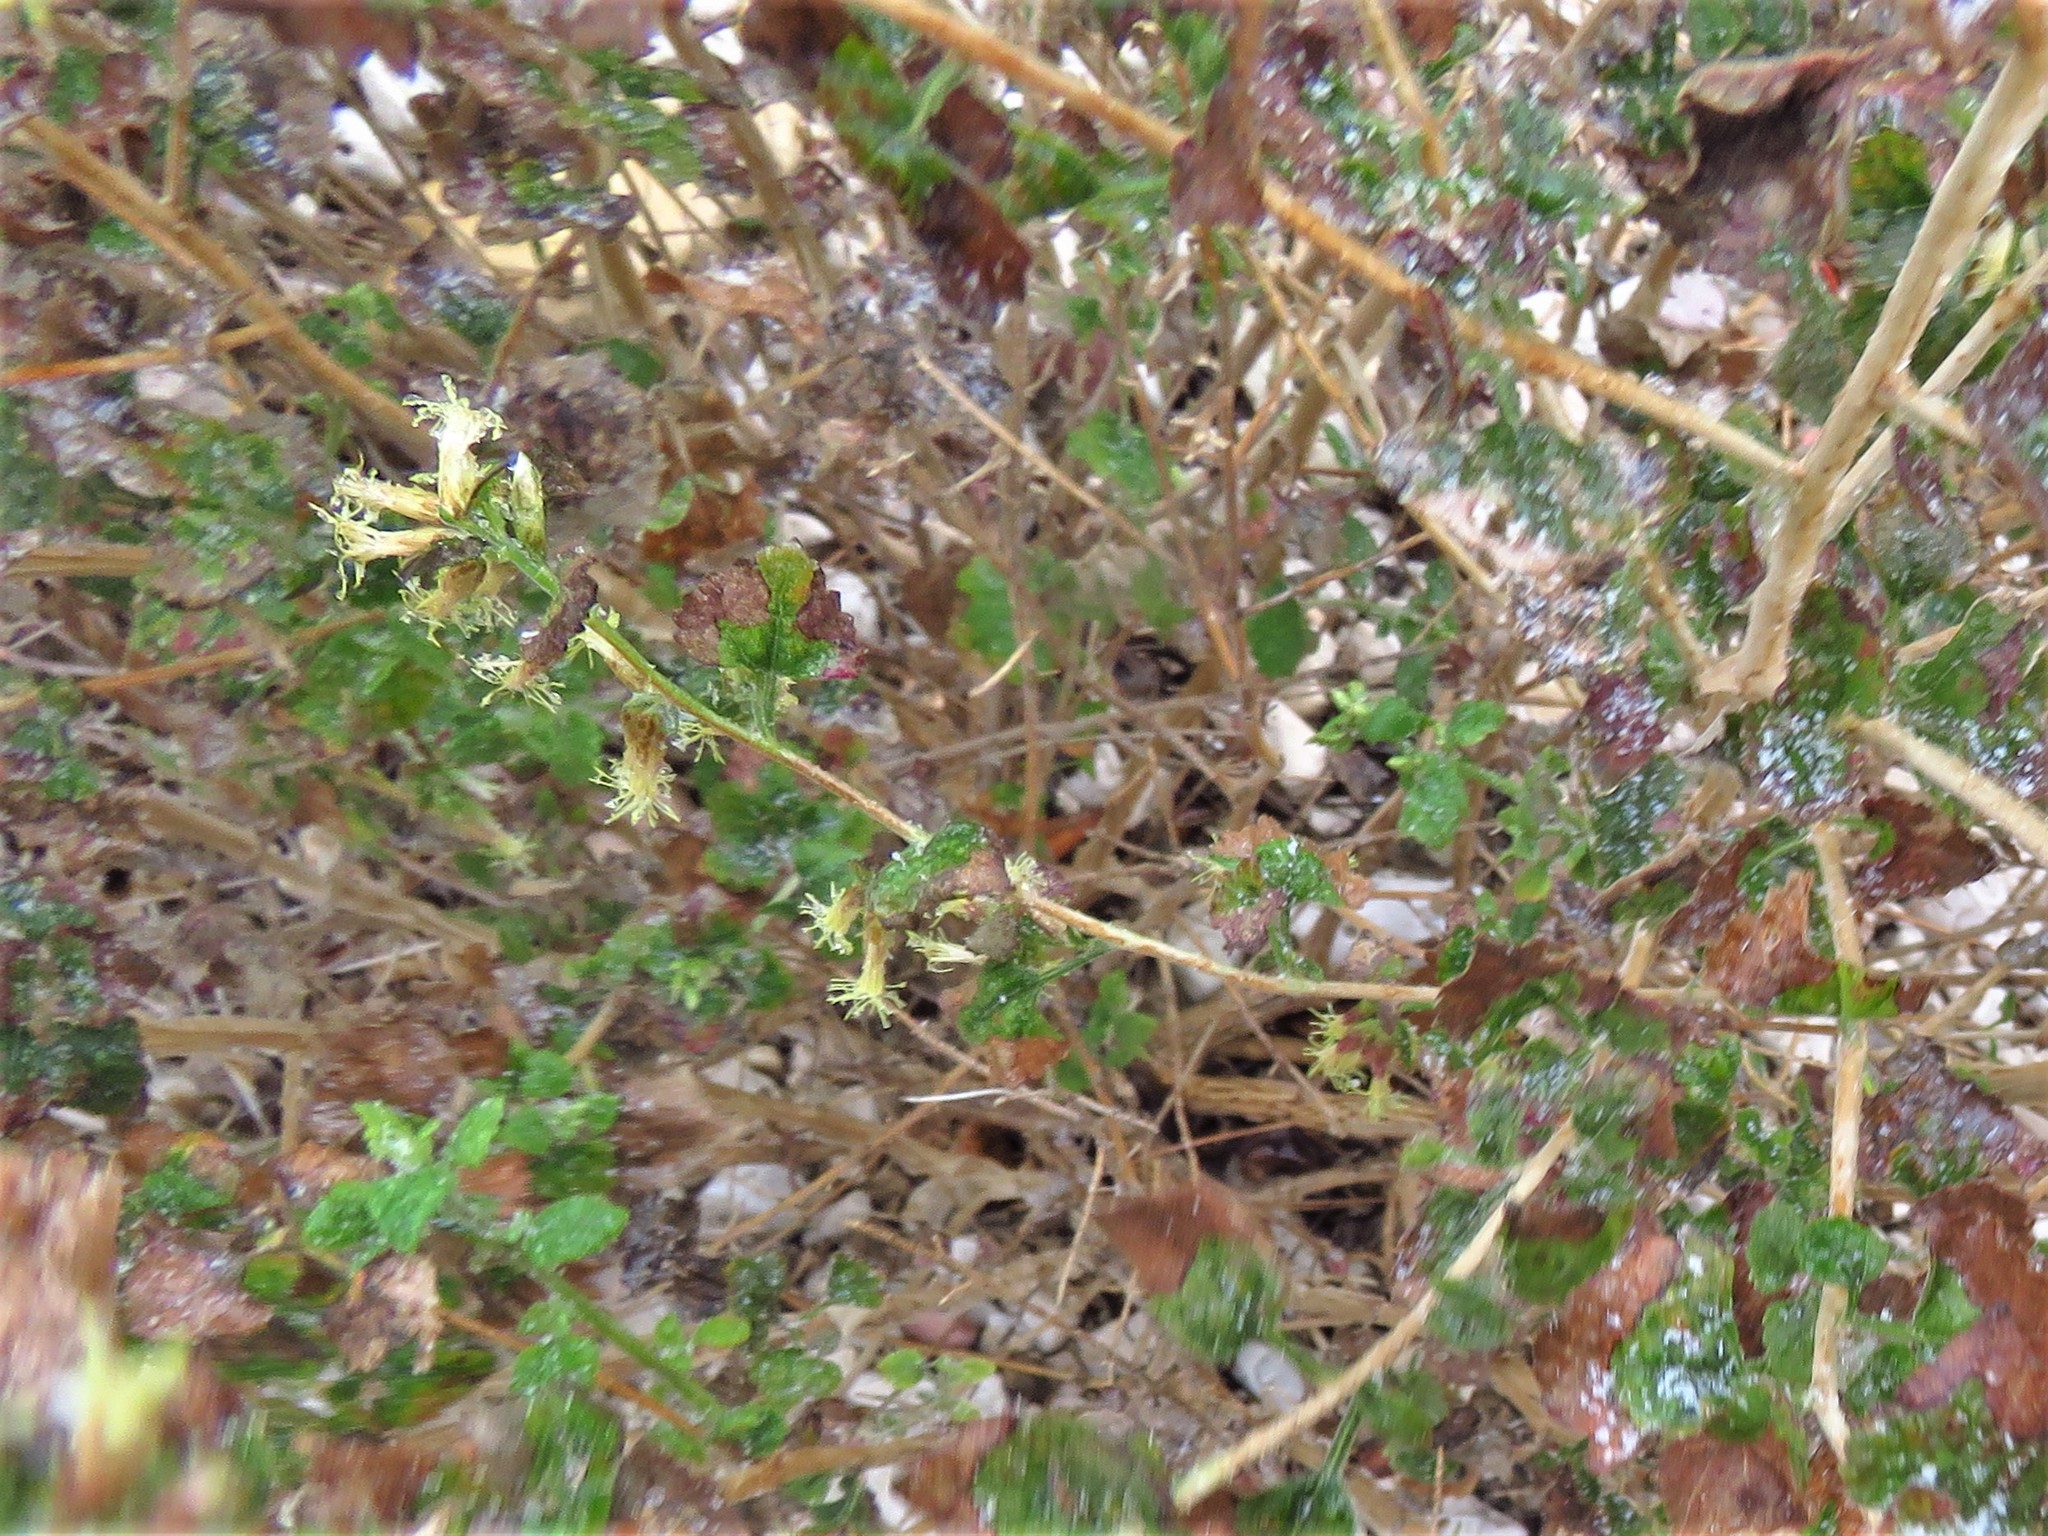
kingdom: Plantae
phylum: Tracheophyta
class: Magnoliopsida
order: Asterales
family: Asteraceae
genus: Brickellia
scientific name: Brickellia californica
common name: California brickellbush
